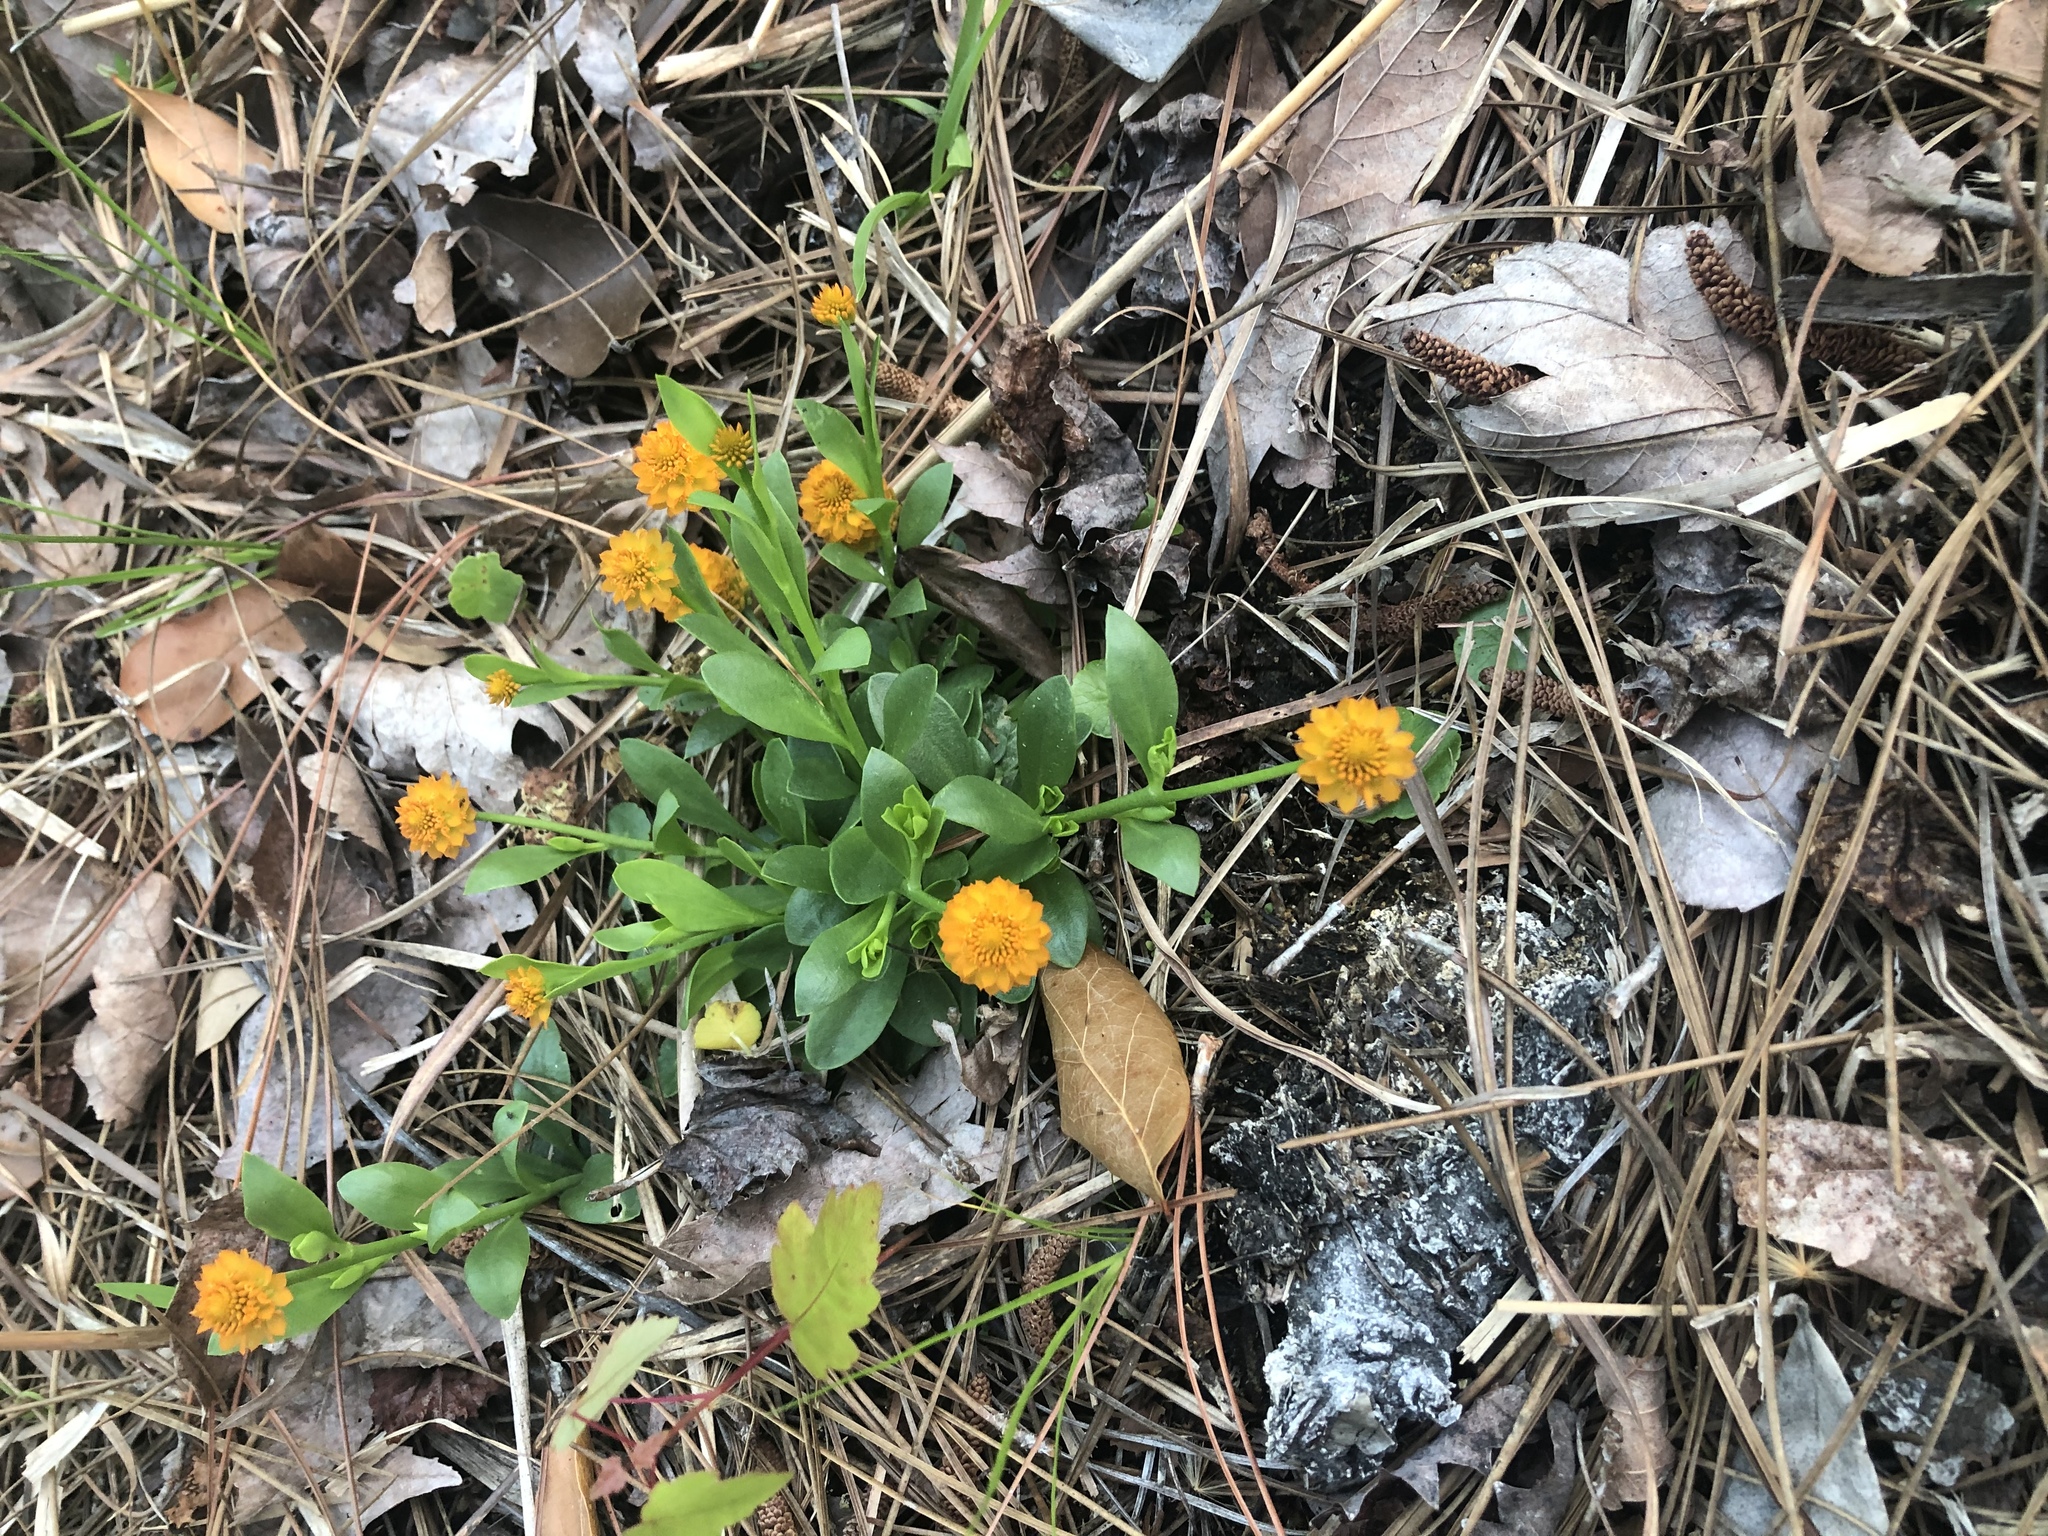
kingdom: Plantae
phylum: Tracheophyta
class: Magnoliopsida
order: Fabales
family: Polygalaceae
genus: Polygala
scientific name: Polygala lutea
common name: Orange milkwort
